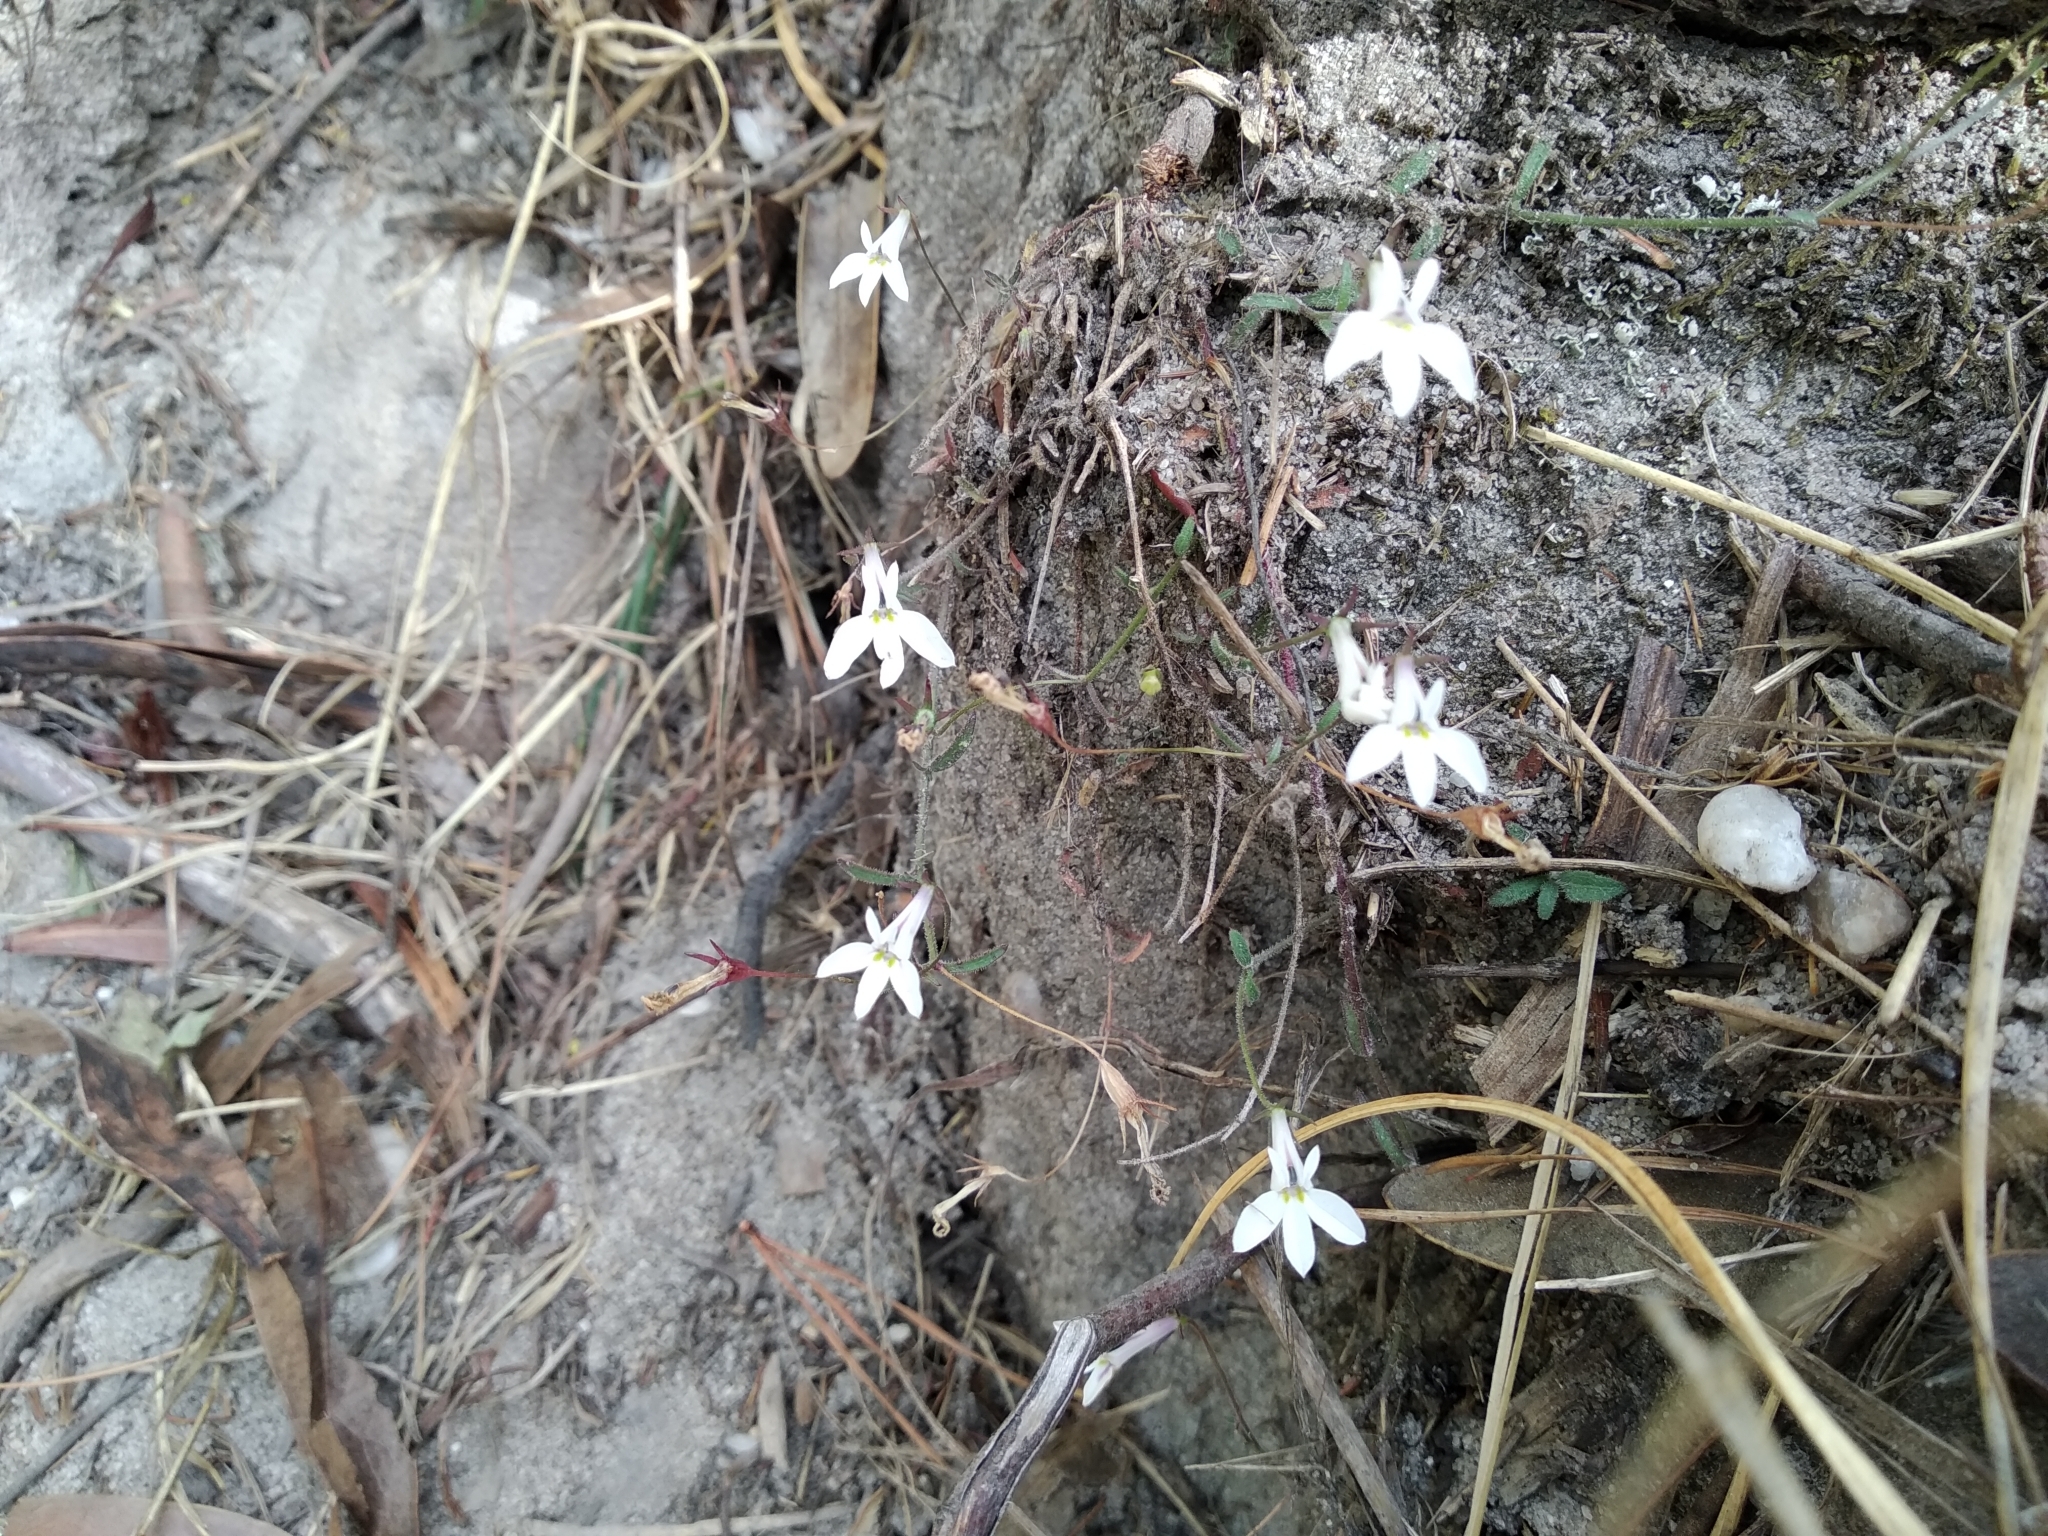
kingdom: Plantae
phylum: Tracheophyta
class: Magnoliopsida
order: Asterales
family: Campanulaceae
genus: Lobelia
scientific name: Lobelia pubescens
